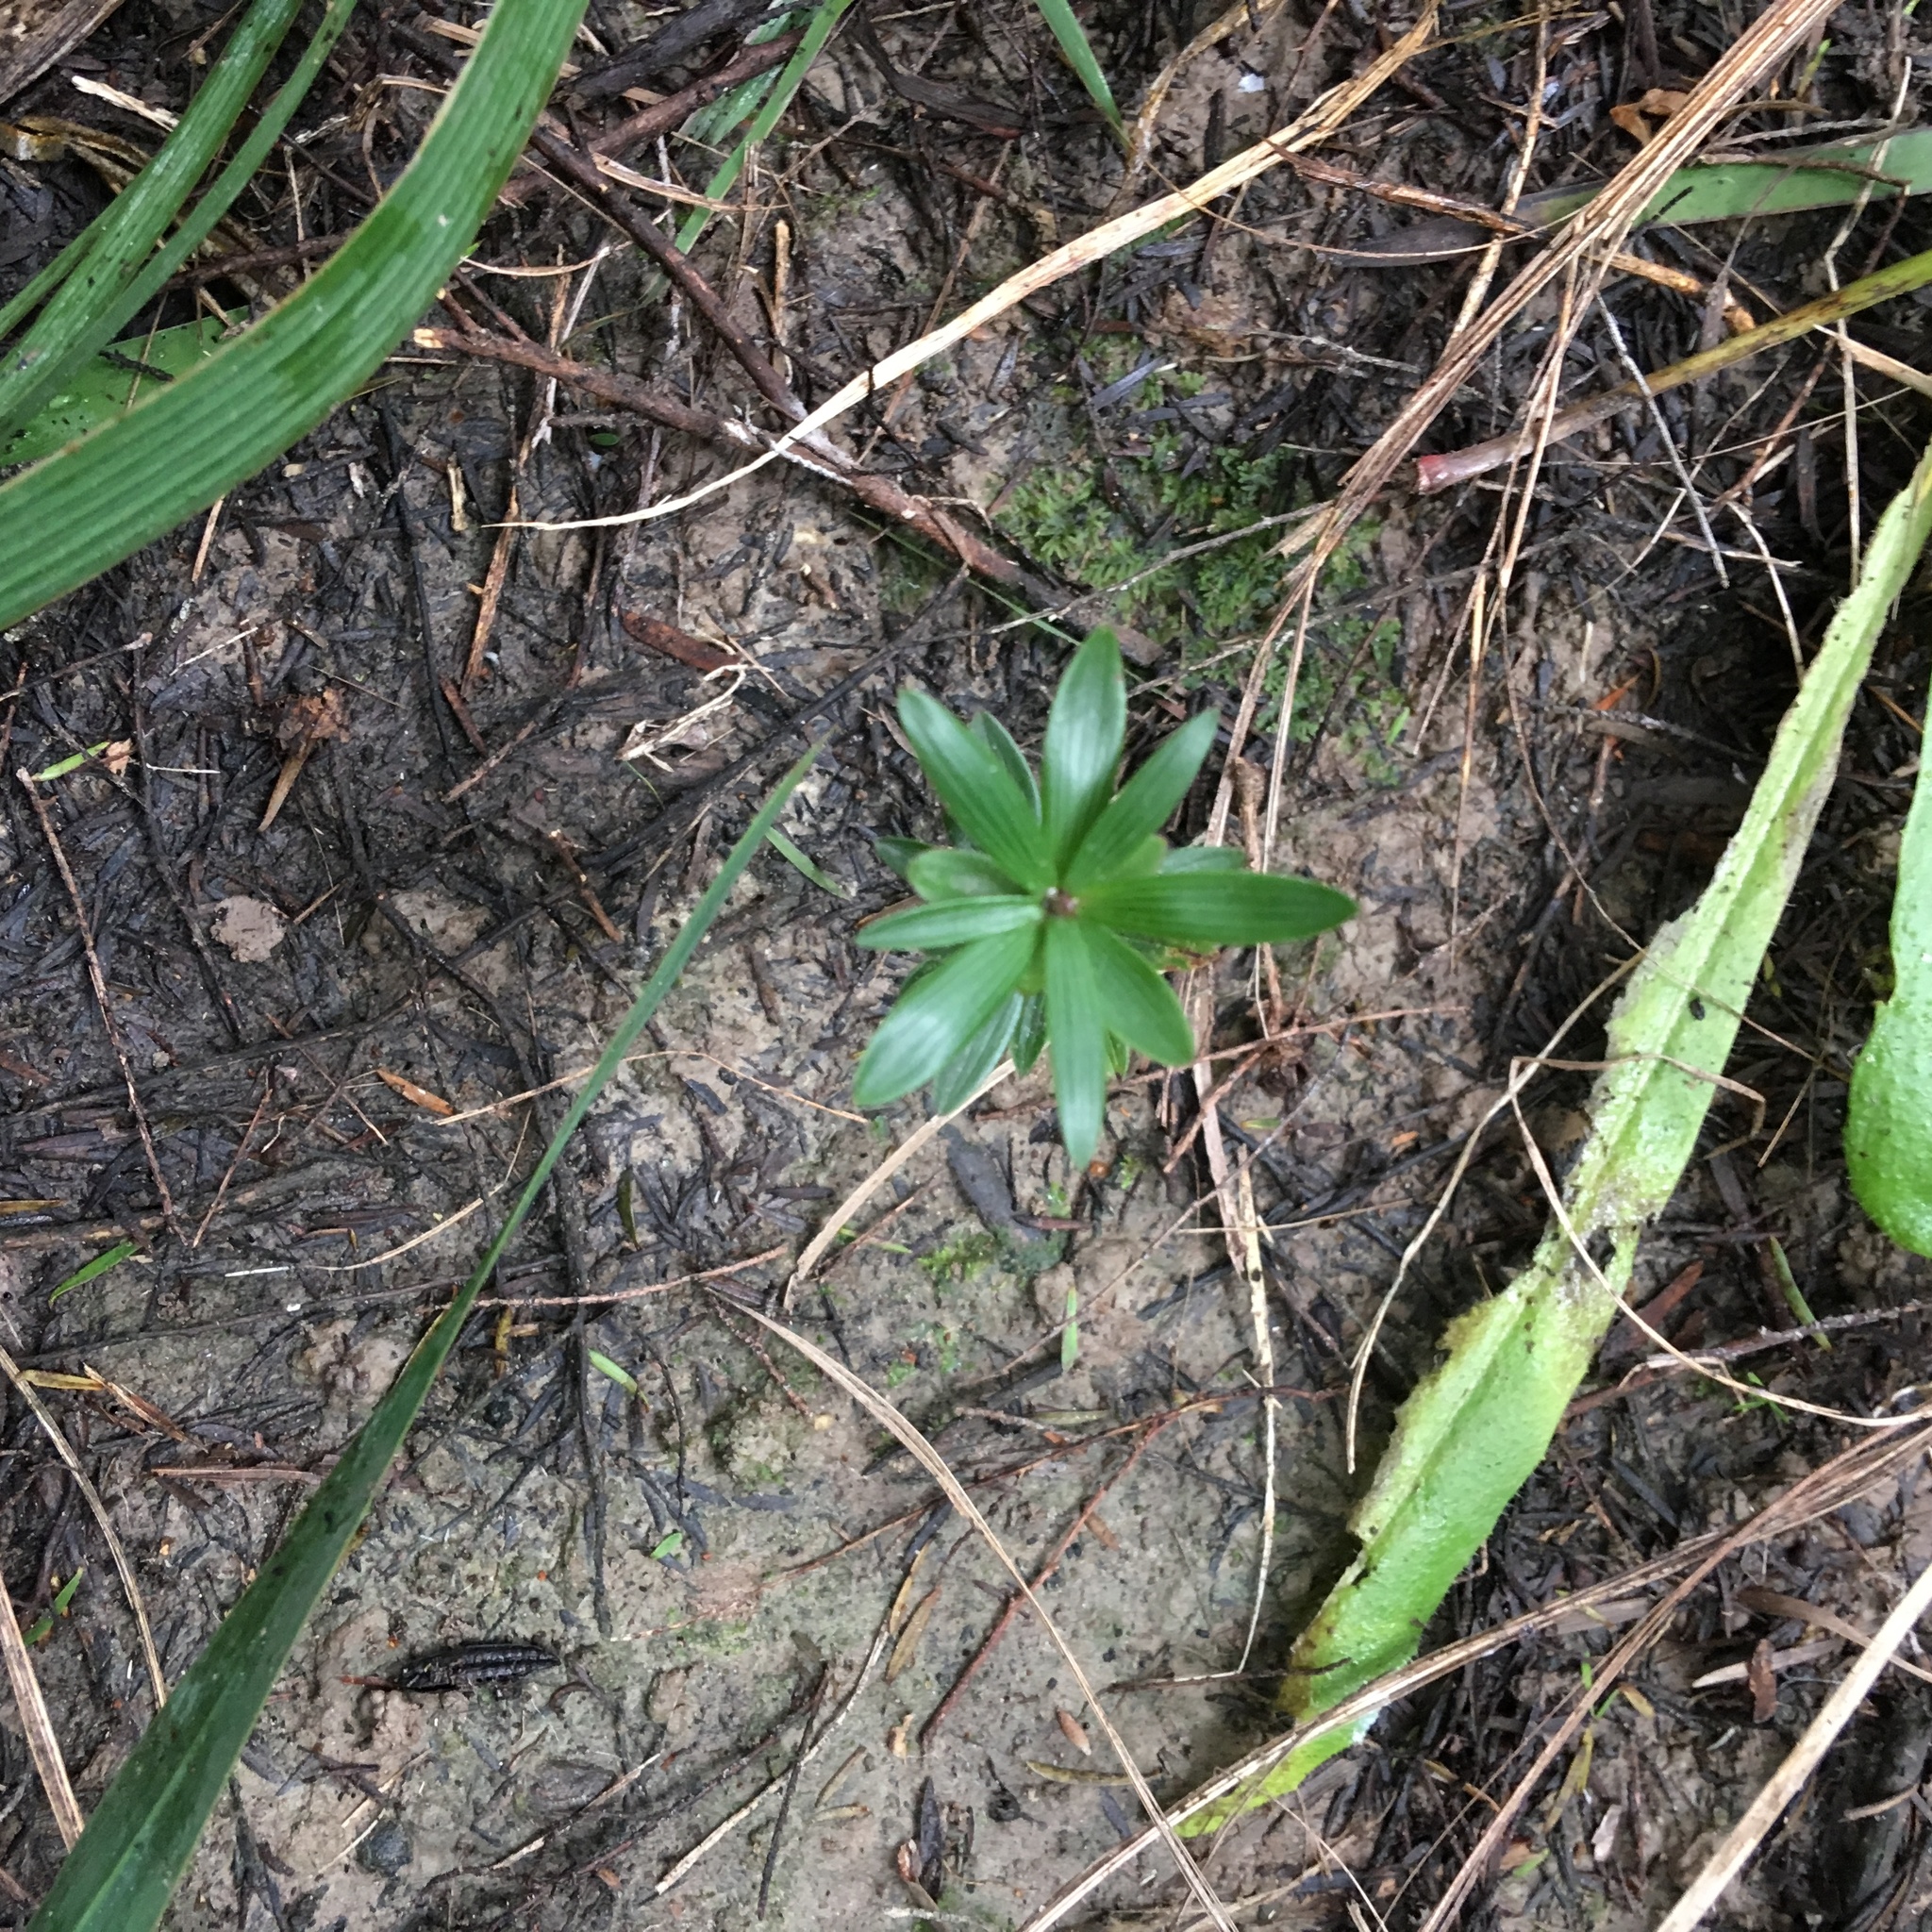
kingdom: Plantae
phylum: Tracheophyta
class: Magnoliopsida
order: Ericales
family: Ericaceae
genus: Leucopogon
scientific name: Leucopogon fasciculatus
